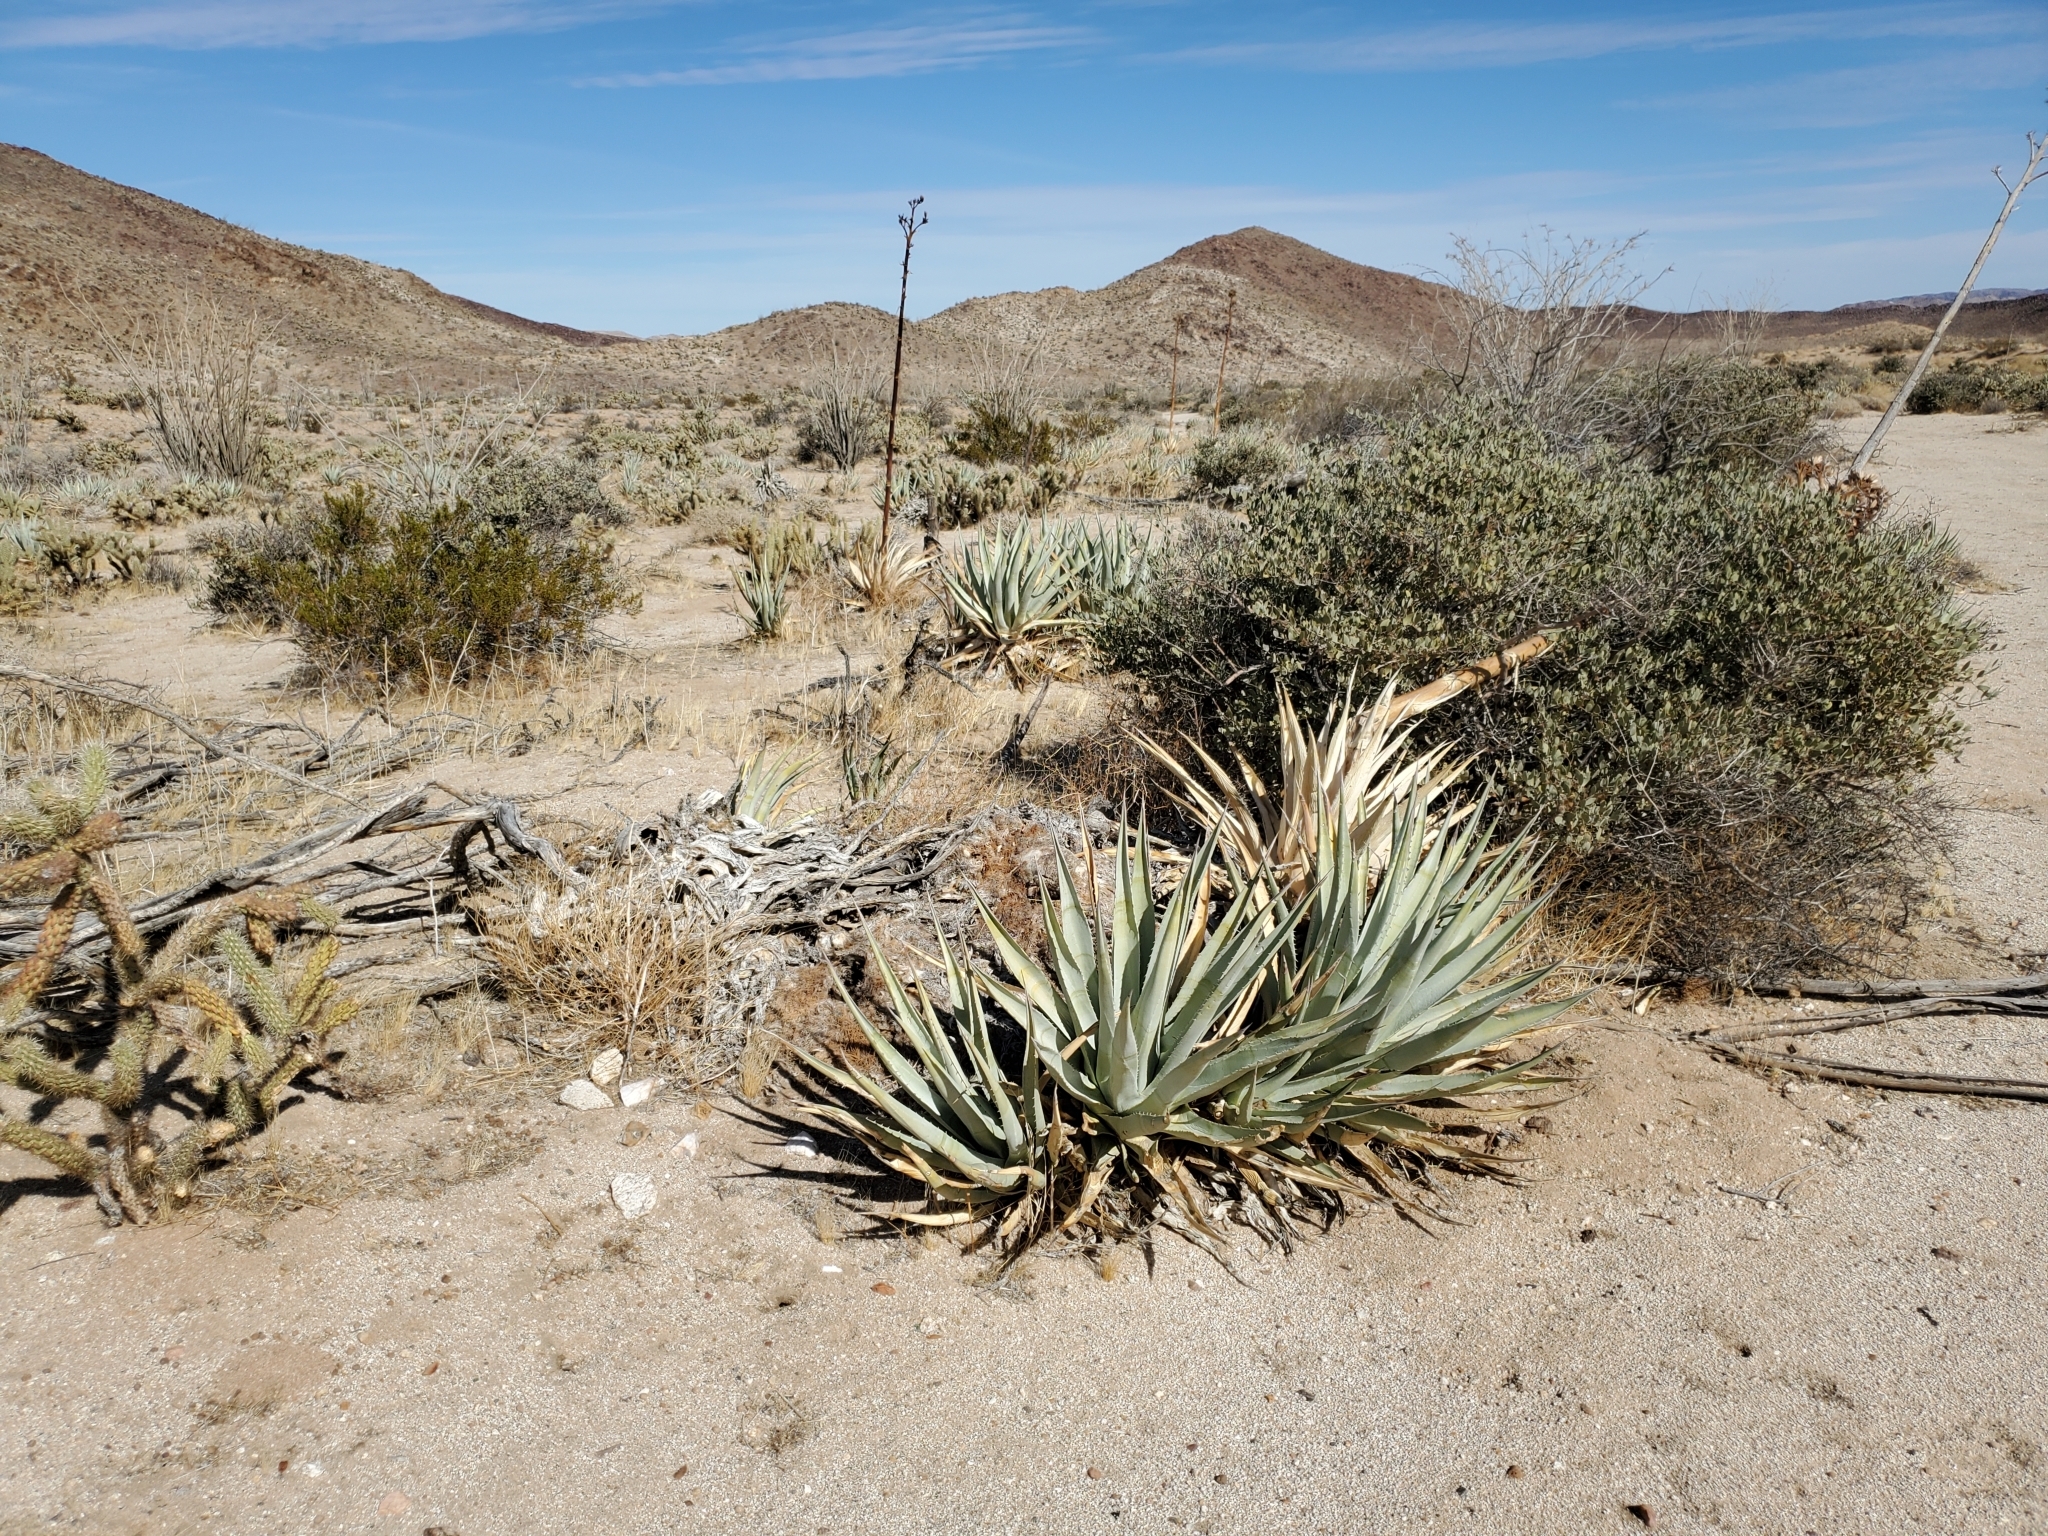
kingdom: Plantae
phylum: Tracheophyta
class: Liliopsida
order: Asparagales
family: Asparagaceae
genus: Agave
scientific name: Agave deserti
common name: Desert agave
